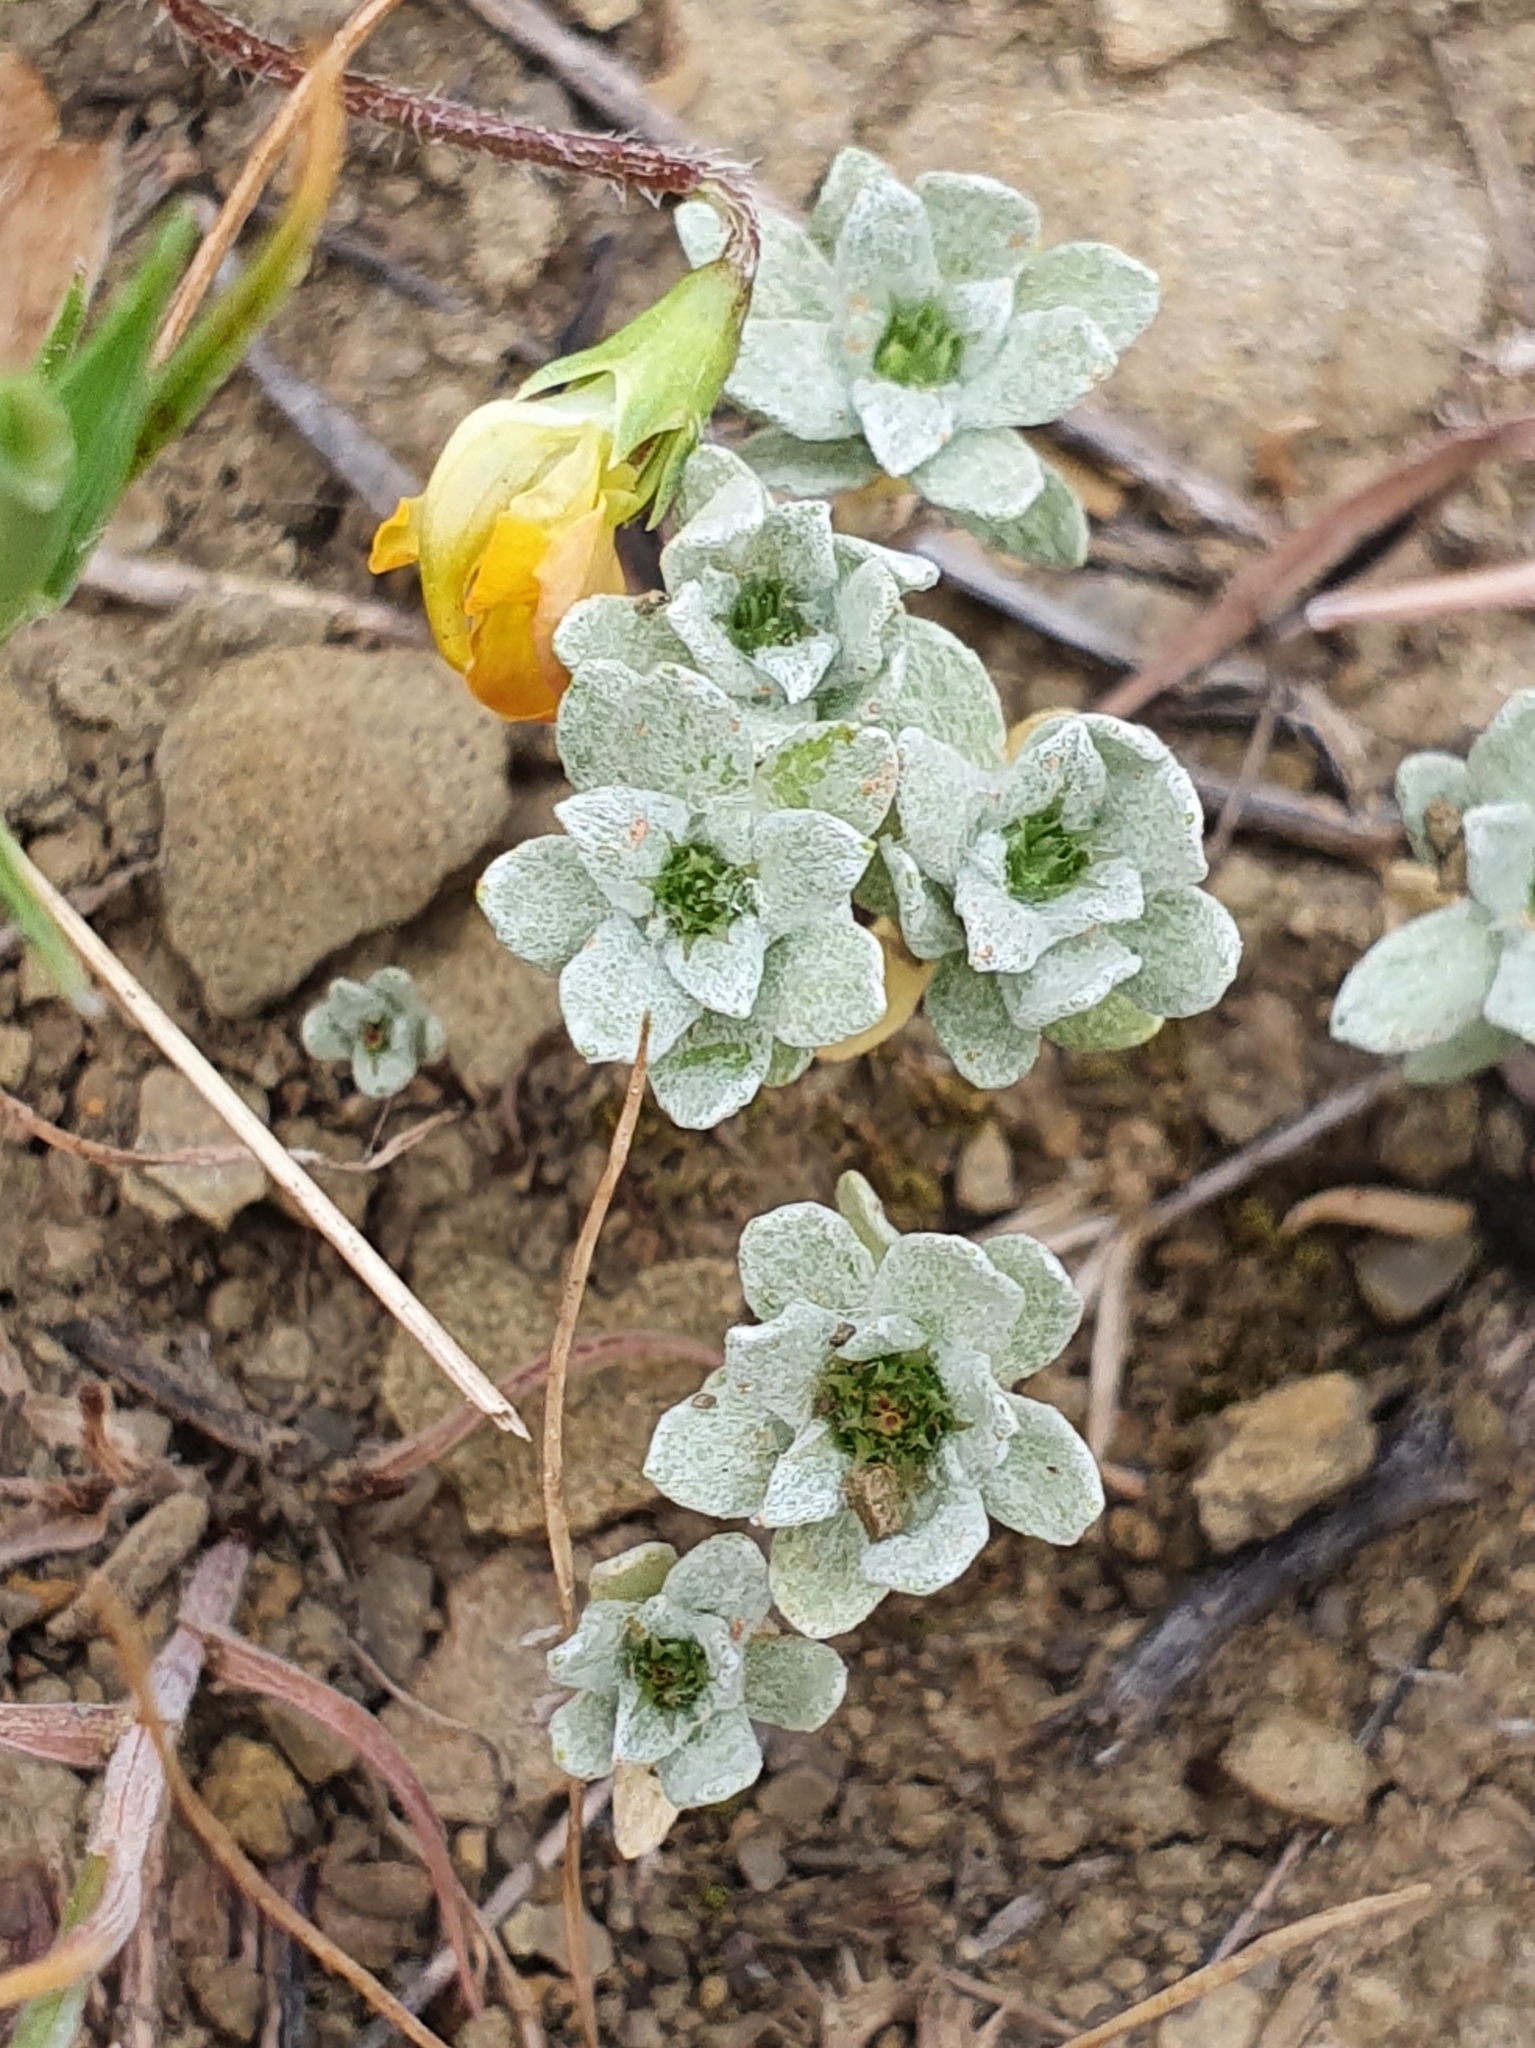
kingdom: Plantae
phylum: Tracheophyta
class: Magnoliopsida
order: Asterales
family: Asteraceae
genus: Filago
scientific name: Filago pygmaea
